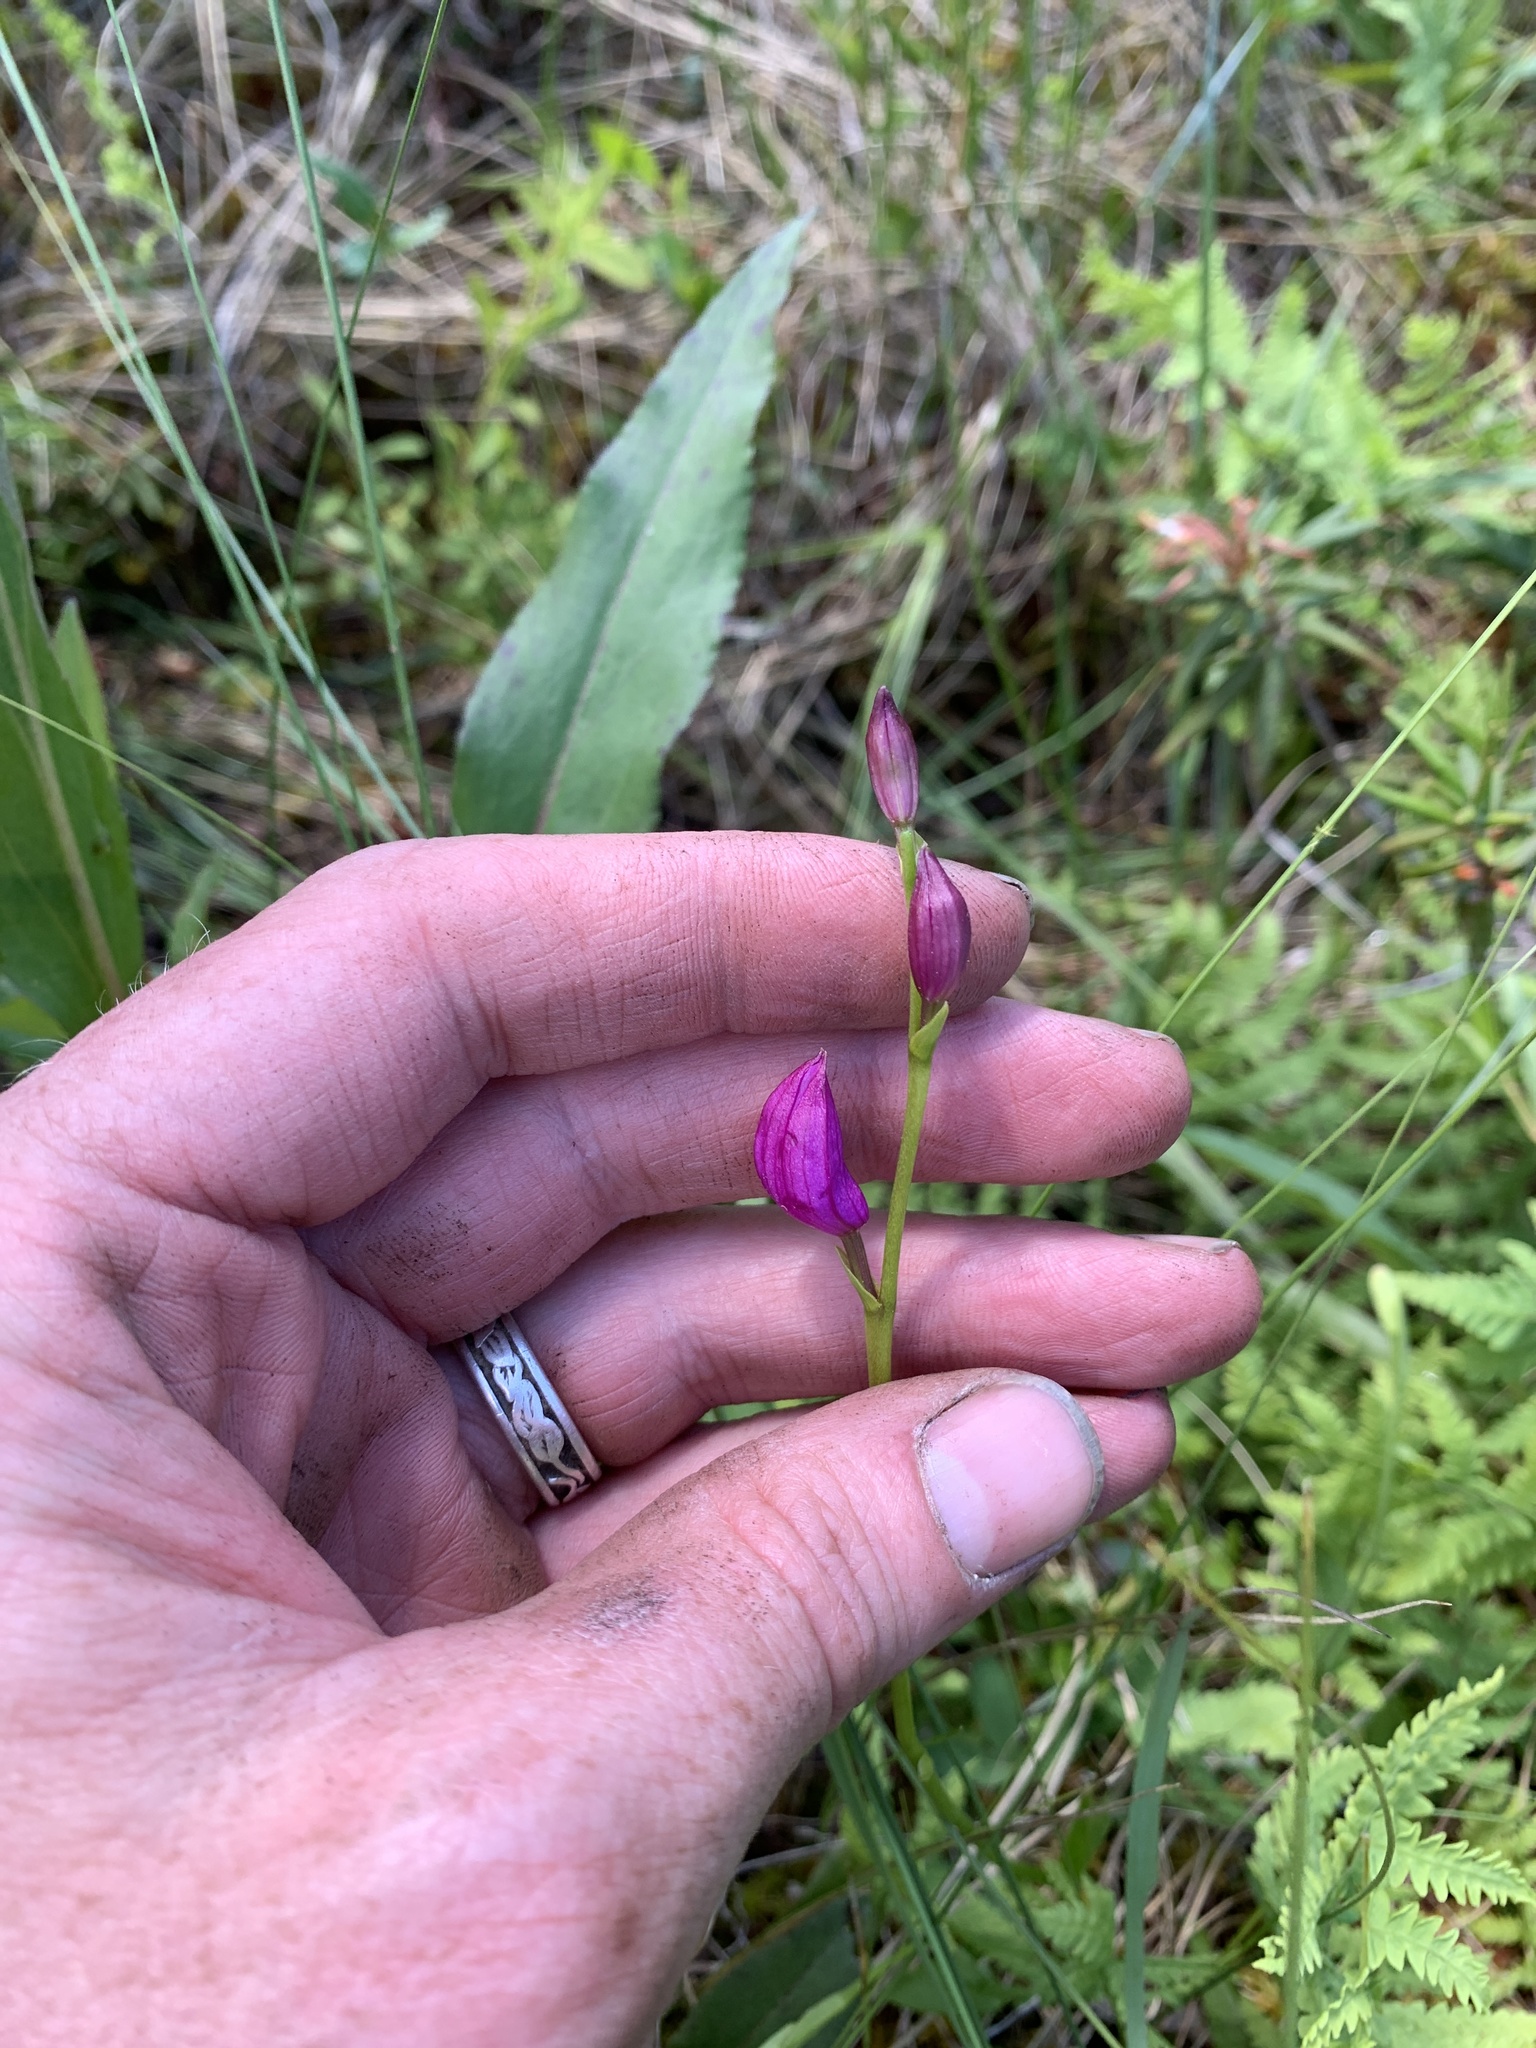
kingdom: Plantae
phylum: Tracheophyta
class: Liliopsida
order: Asparagales
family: Orchidaceae
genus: Calopogon
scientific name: Calopogon tuberosus
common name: Grass-pink
